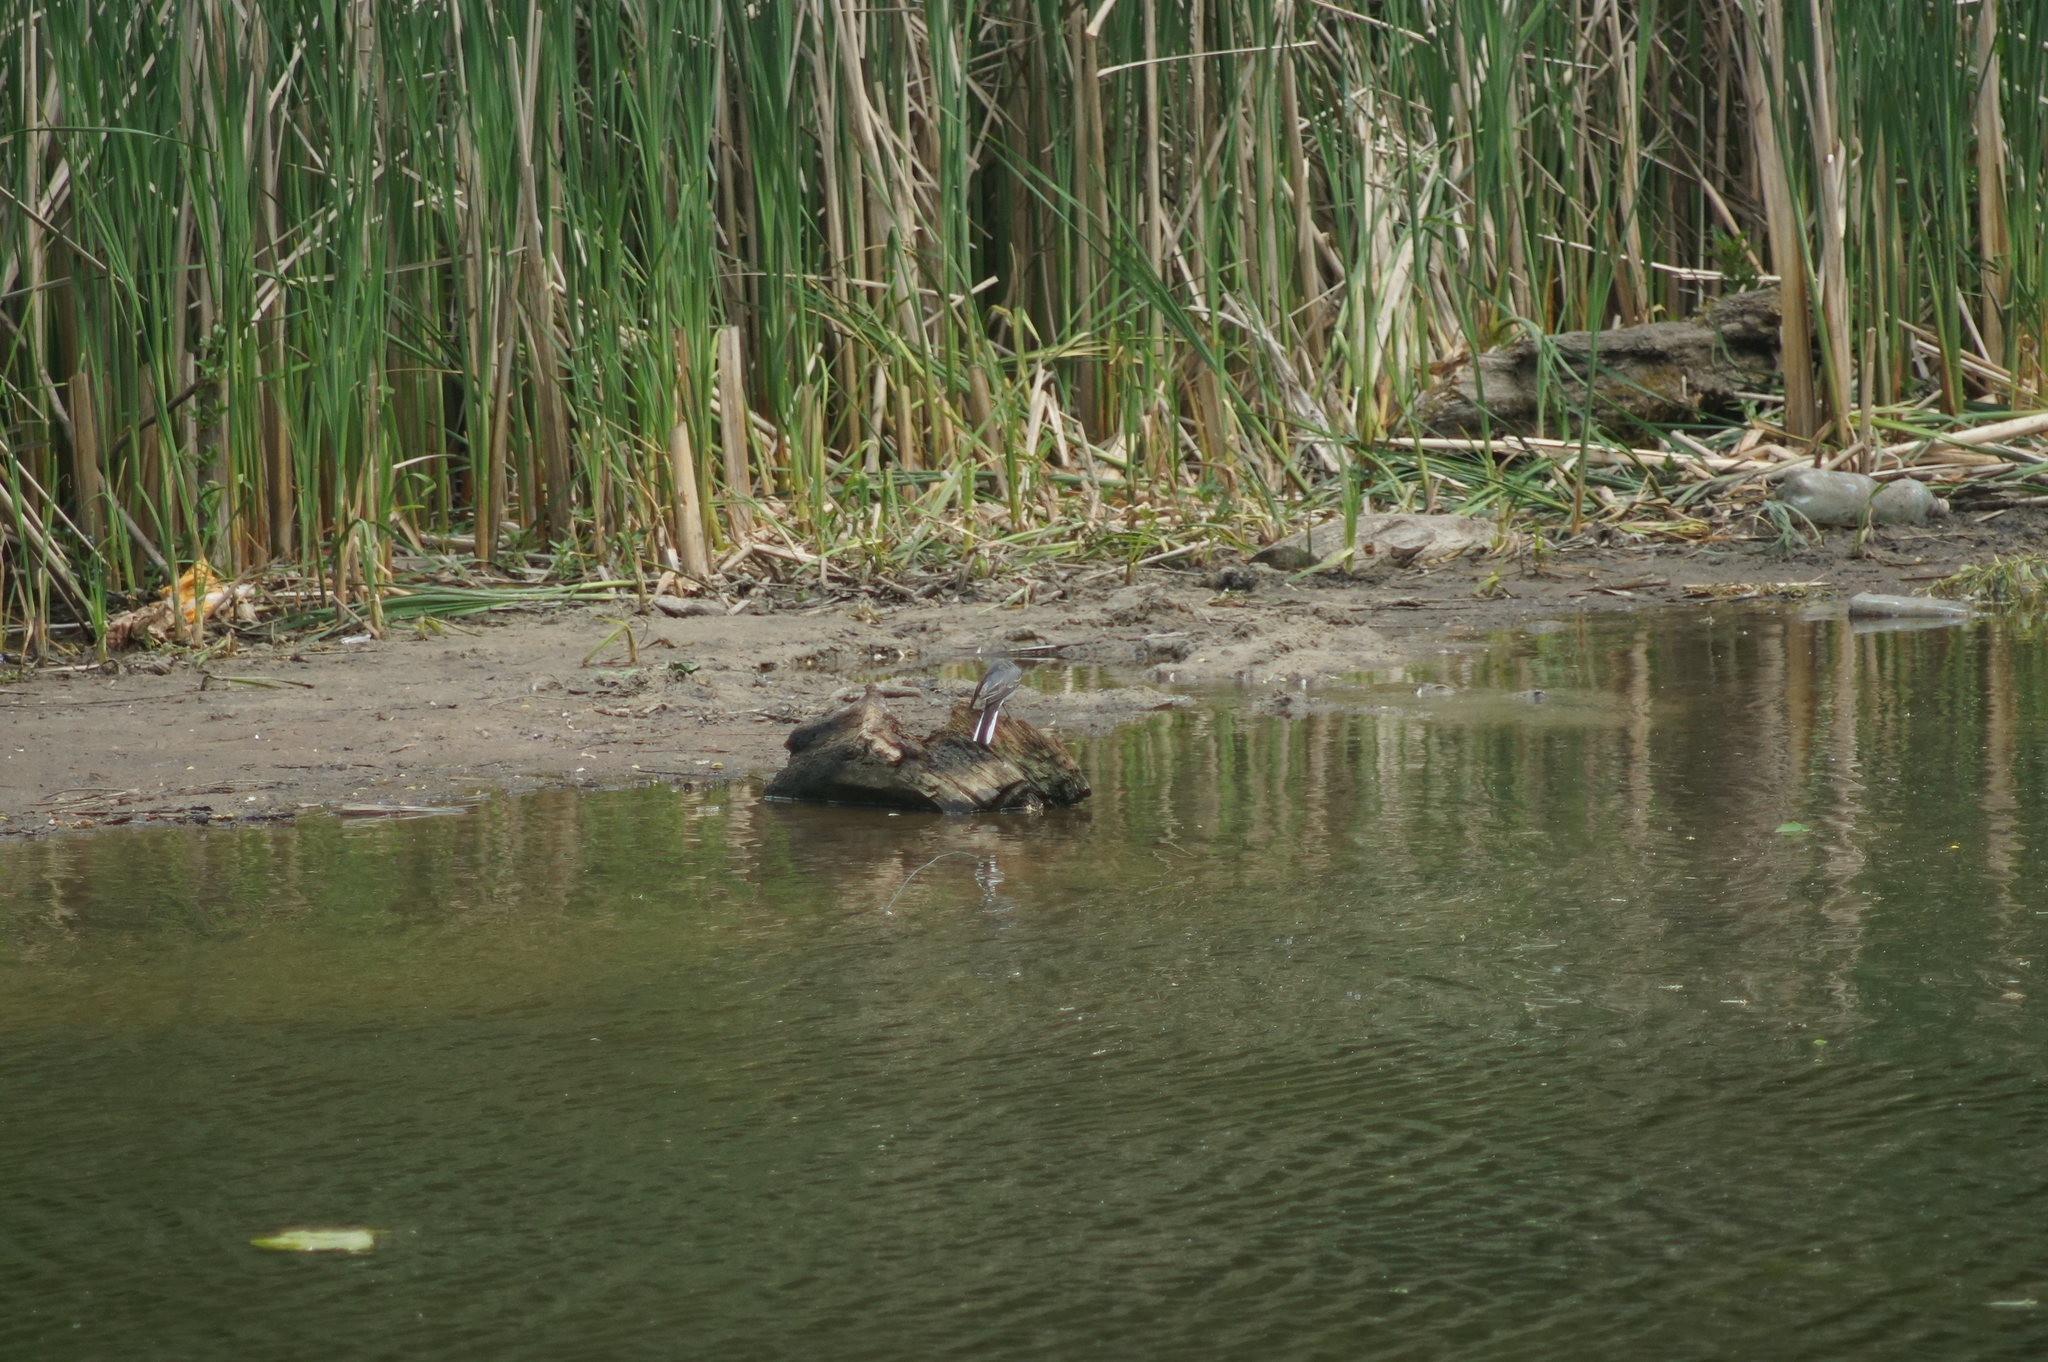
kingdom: Animalia
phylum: Chordata
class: Aves
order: Passeriformes
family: Motacillidae
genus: Motacilla
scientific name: Motacilla alba
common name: White wagtail
